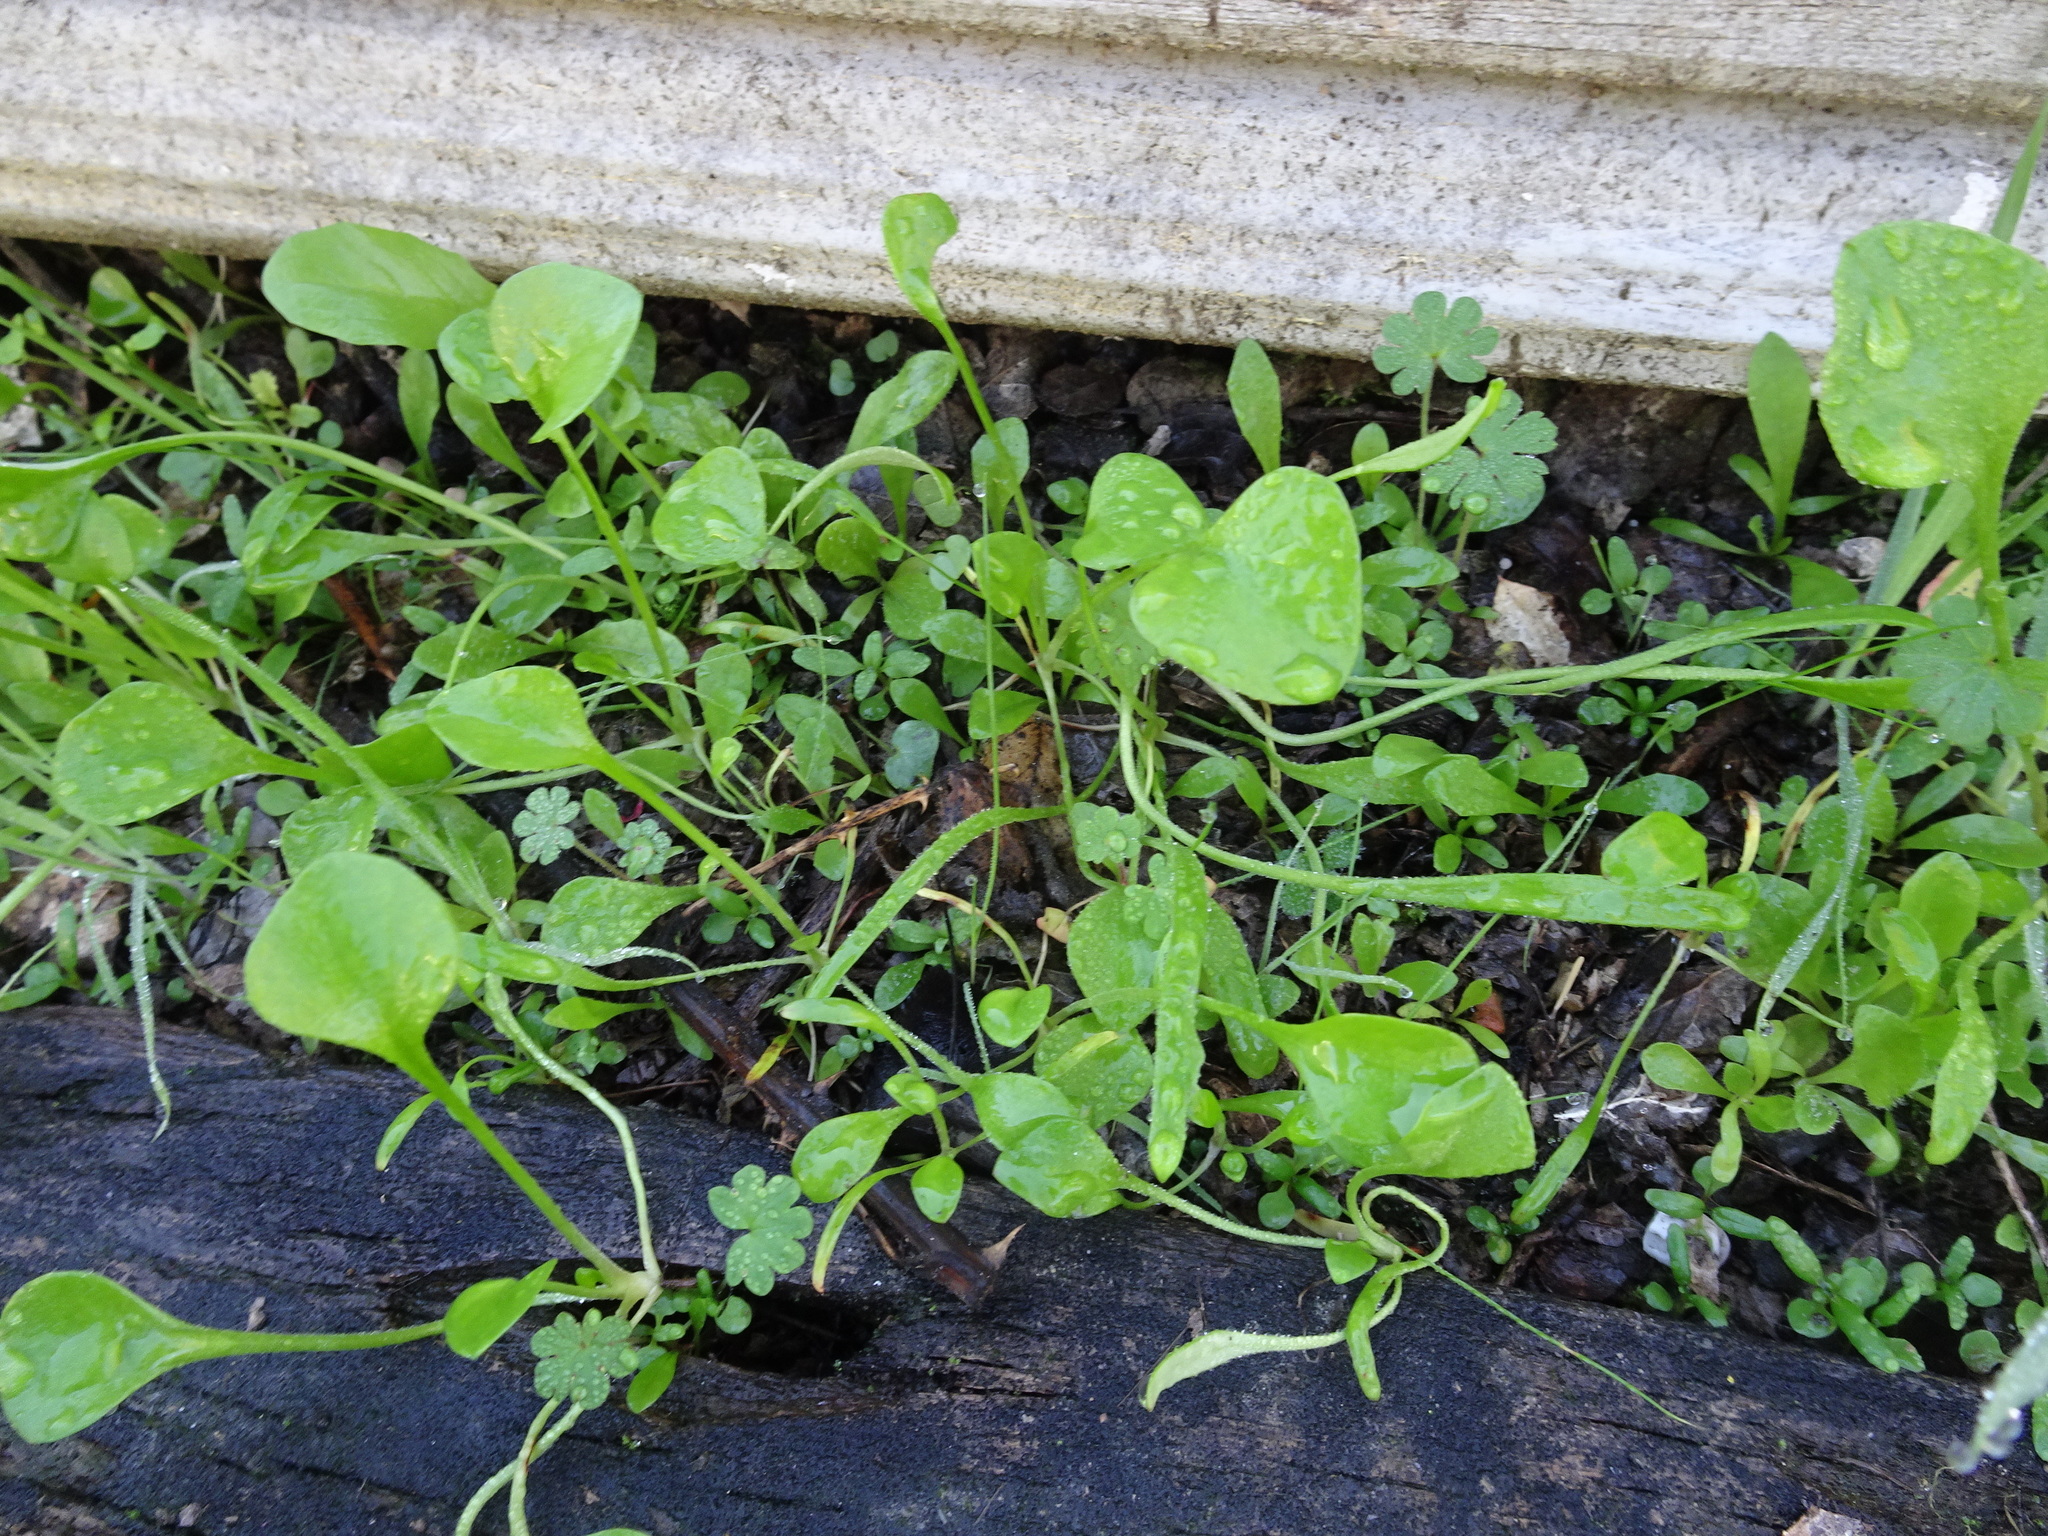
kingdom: Plantae
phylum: Tracheophyta
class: Magnoliopsida
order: Caryophyllales
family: Montiaceae
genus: Claytonia
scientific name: Claytonia perfoliata
